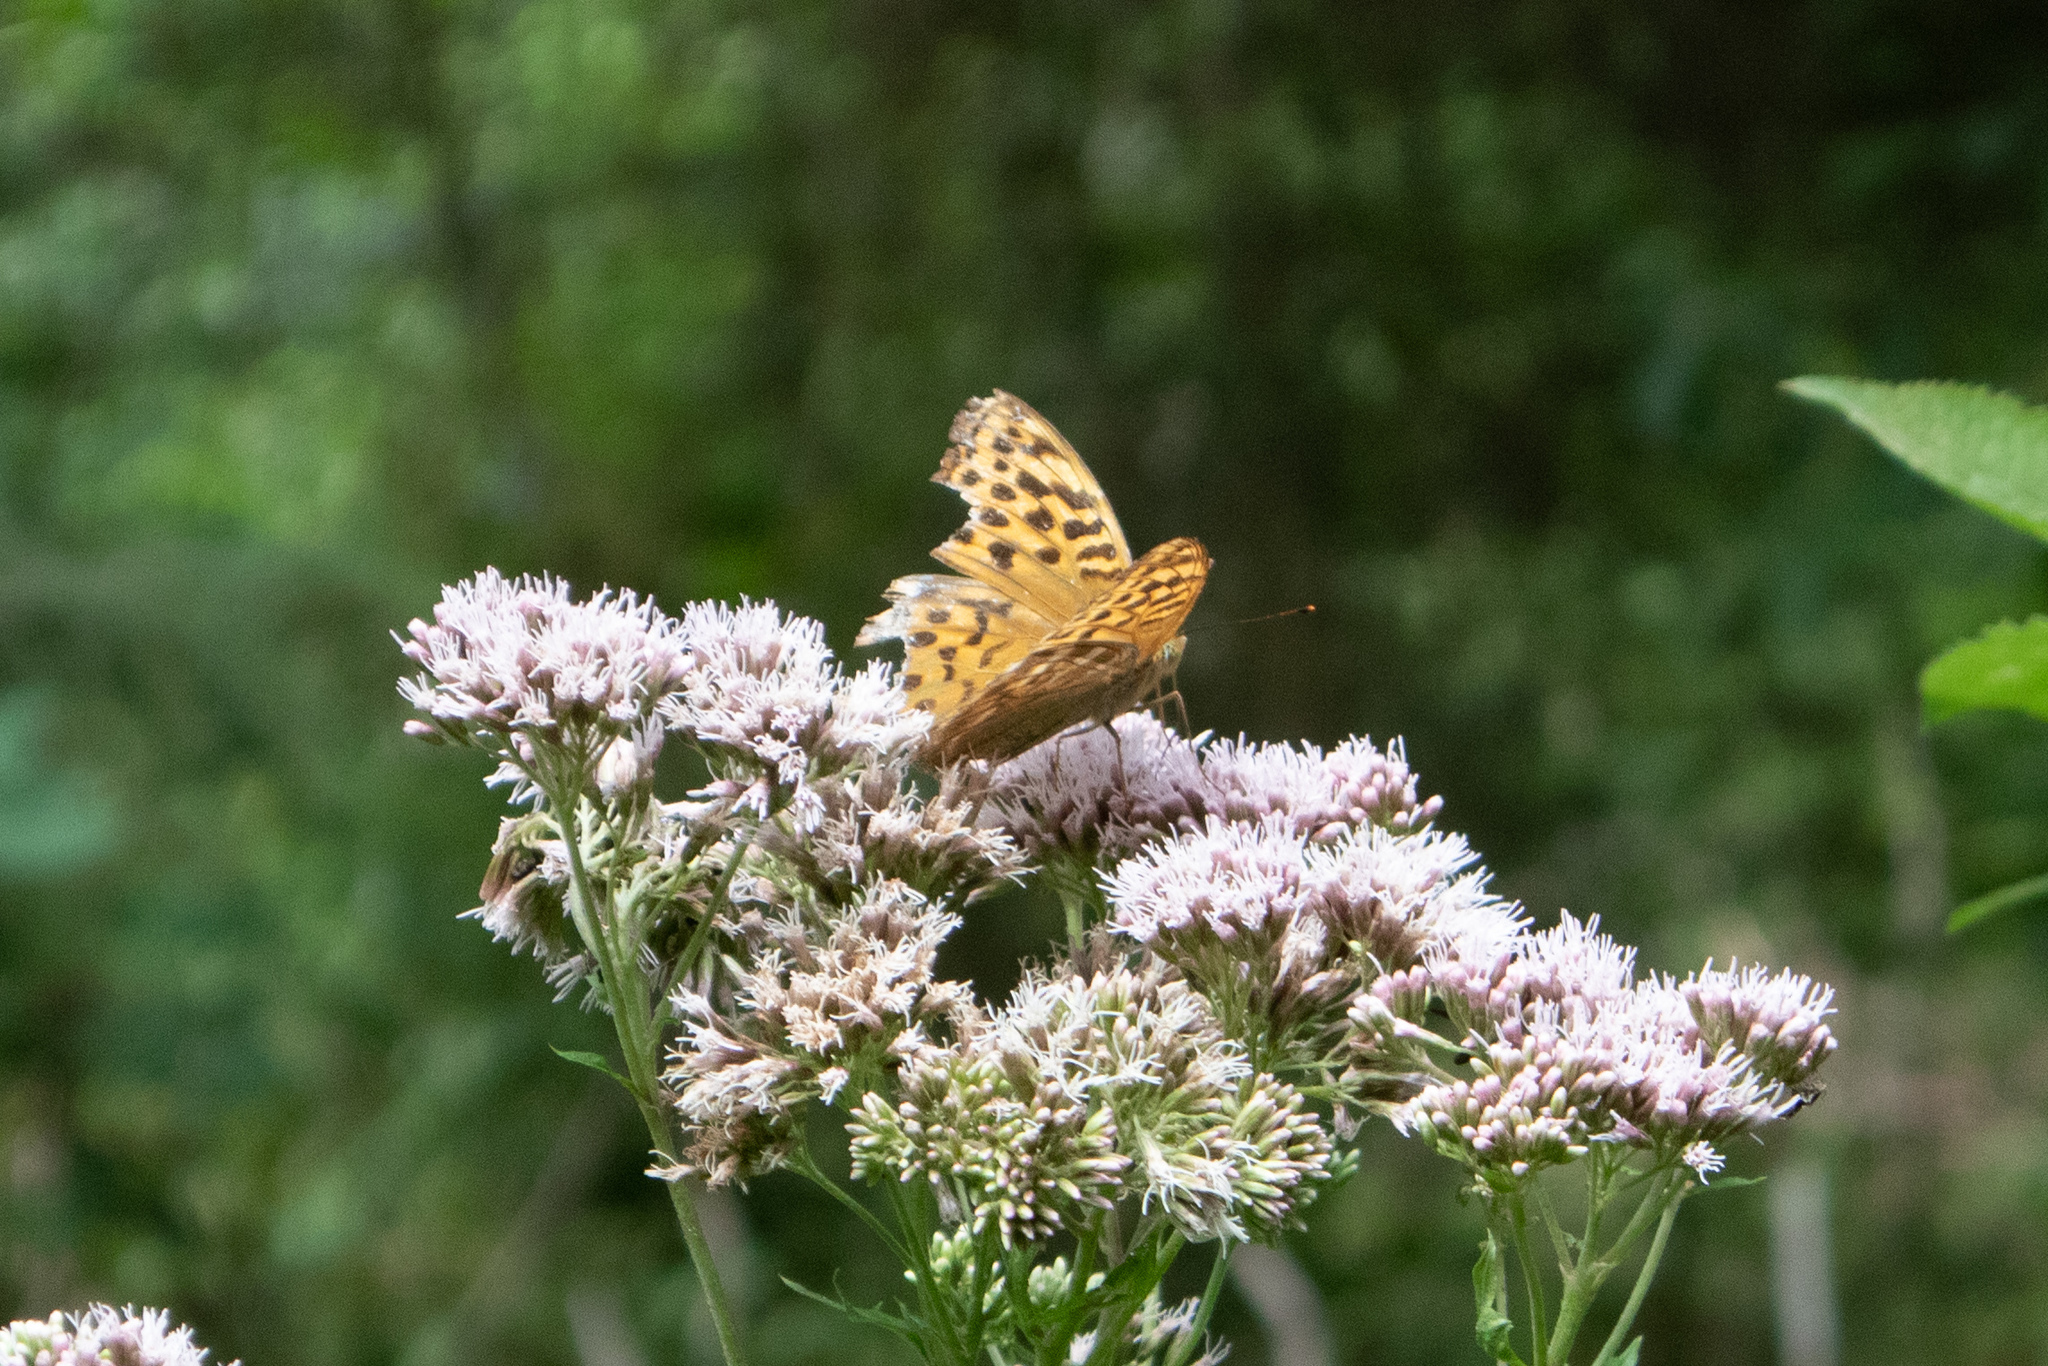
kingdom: Animalia
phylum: Arthropoda
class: Insecta
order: Lepidoptera
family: Nymphalidae
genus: Argynnis
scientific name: Argynnis paphia
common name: Silver-washed fritillary
